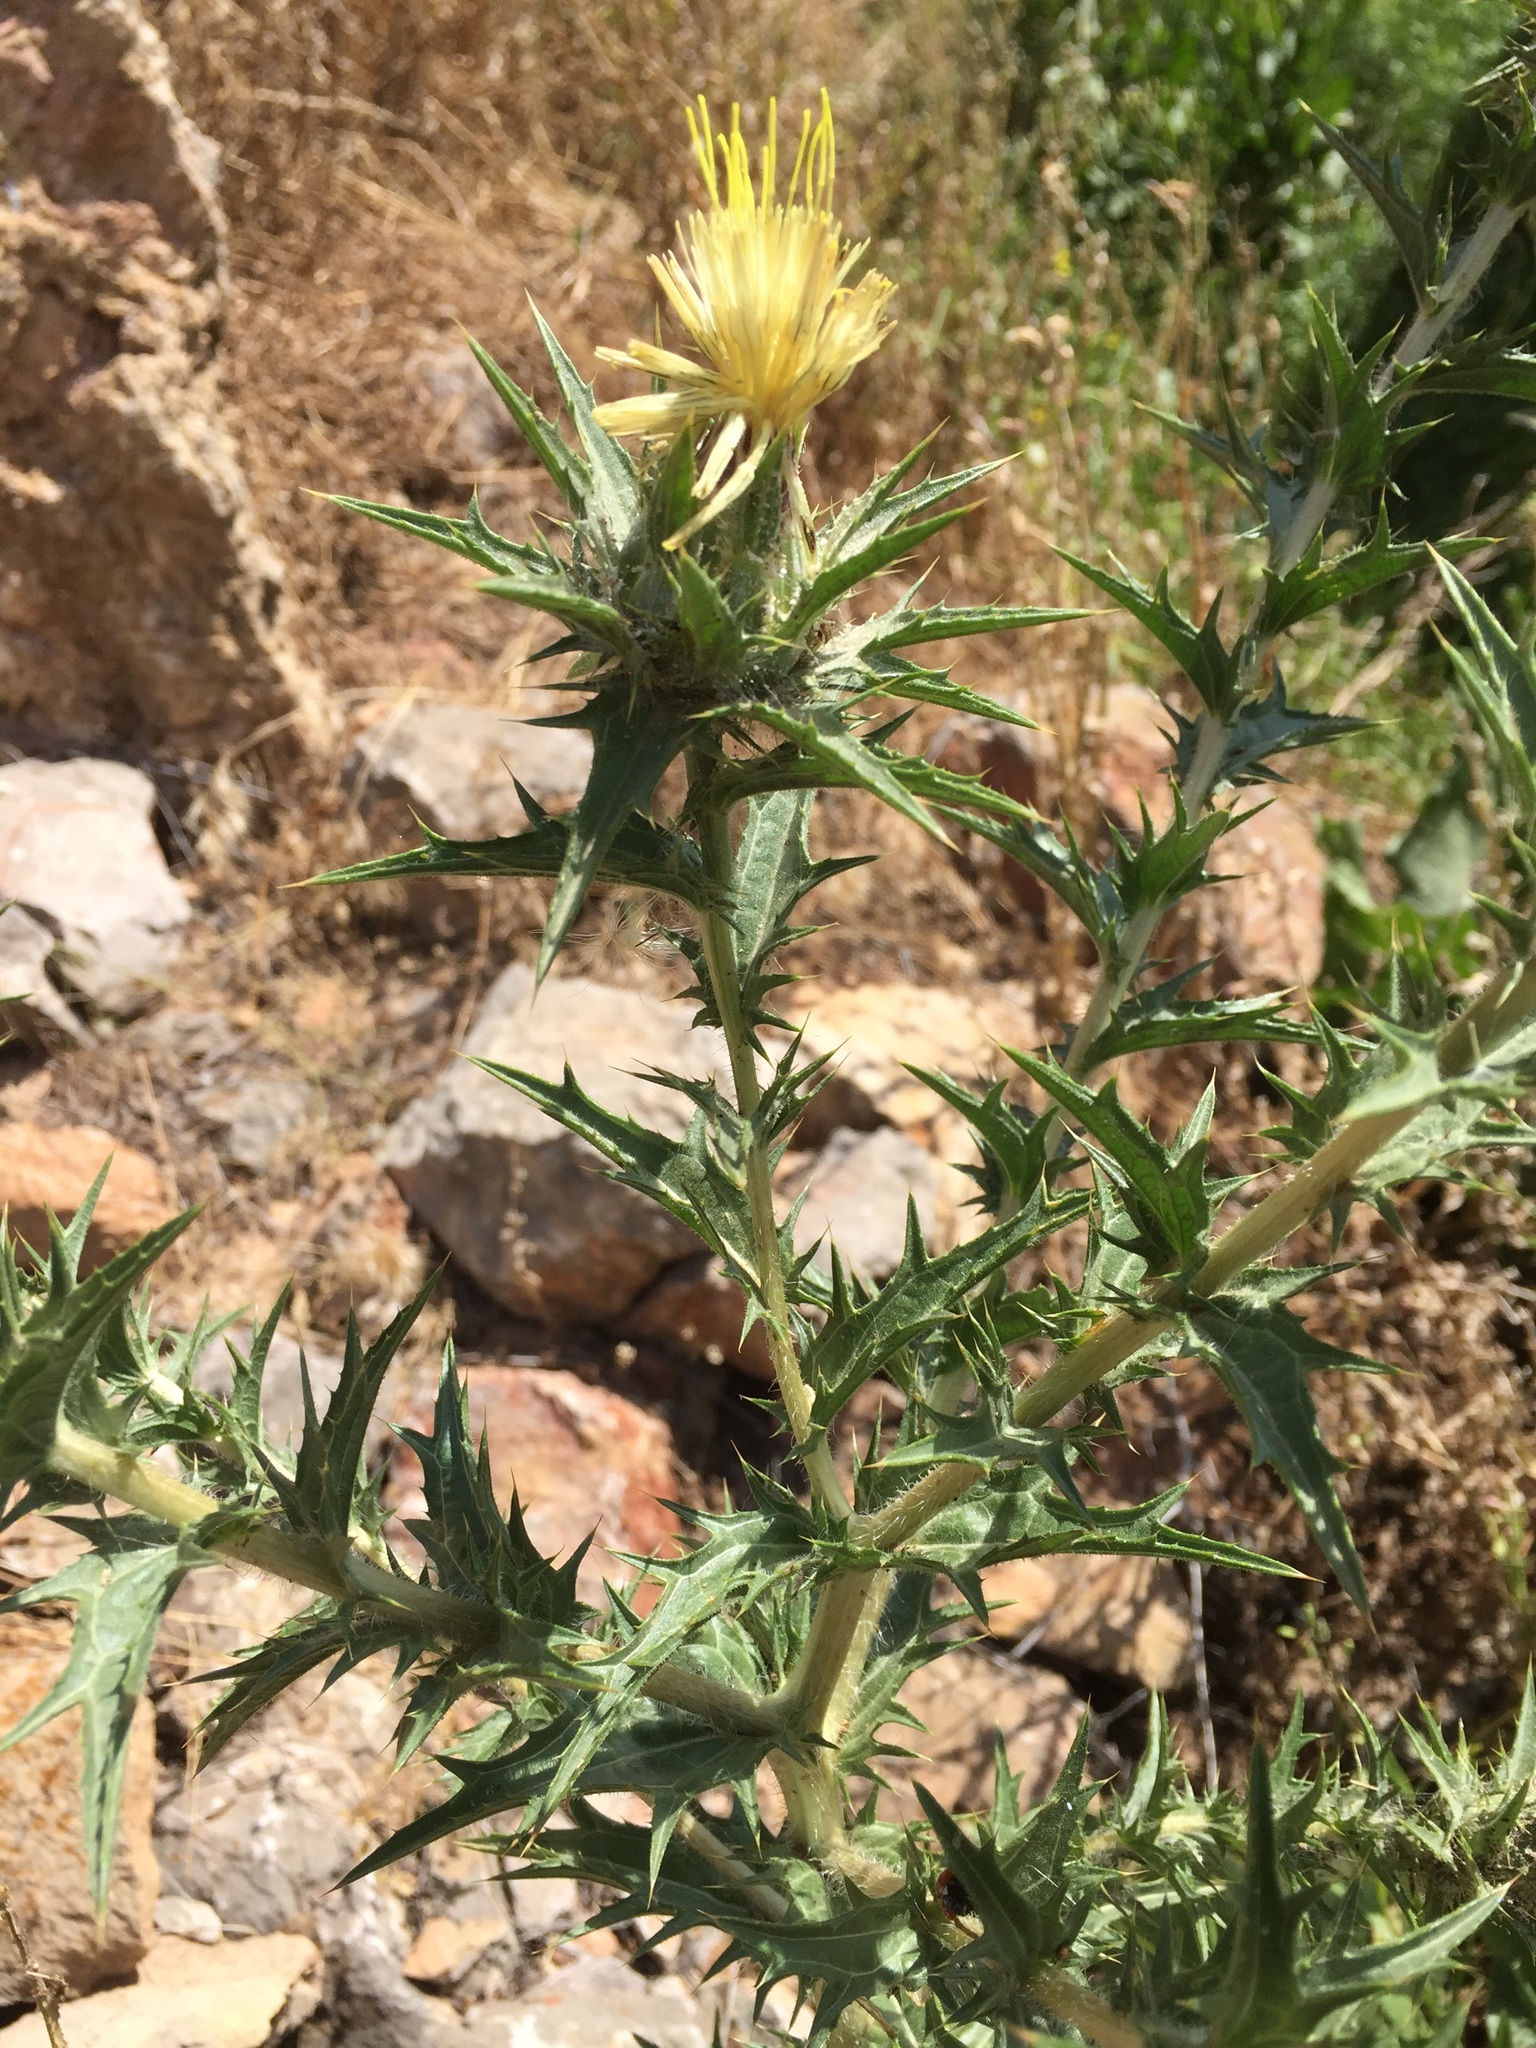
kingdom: Plantae
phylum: Tracheophyta
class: Magnoliopsida
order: Asterales
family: Asteraceae
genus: Carthamus
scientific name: Carthamus lanatus
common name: Downy safflower
